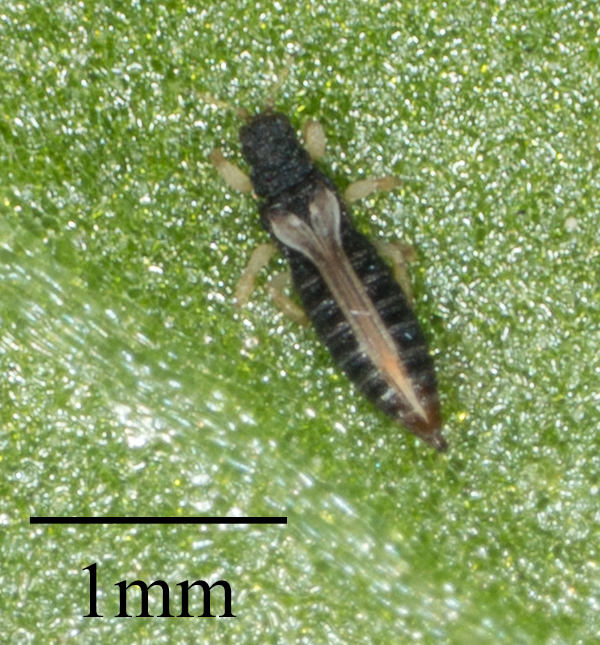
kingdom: Animalia
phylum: Arthropoda
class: Insecta
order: Thysanoptera
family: Thripidae
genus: Heliothrips
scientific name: Heliothrips haemorrhoidalis
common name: Thrips
